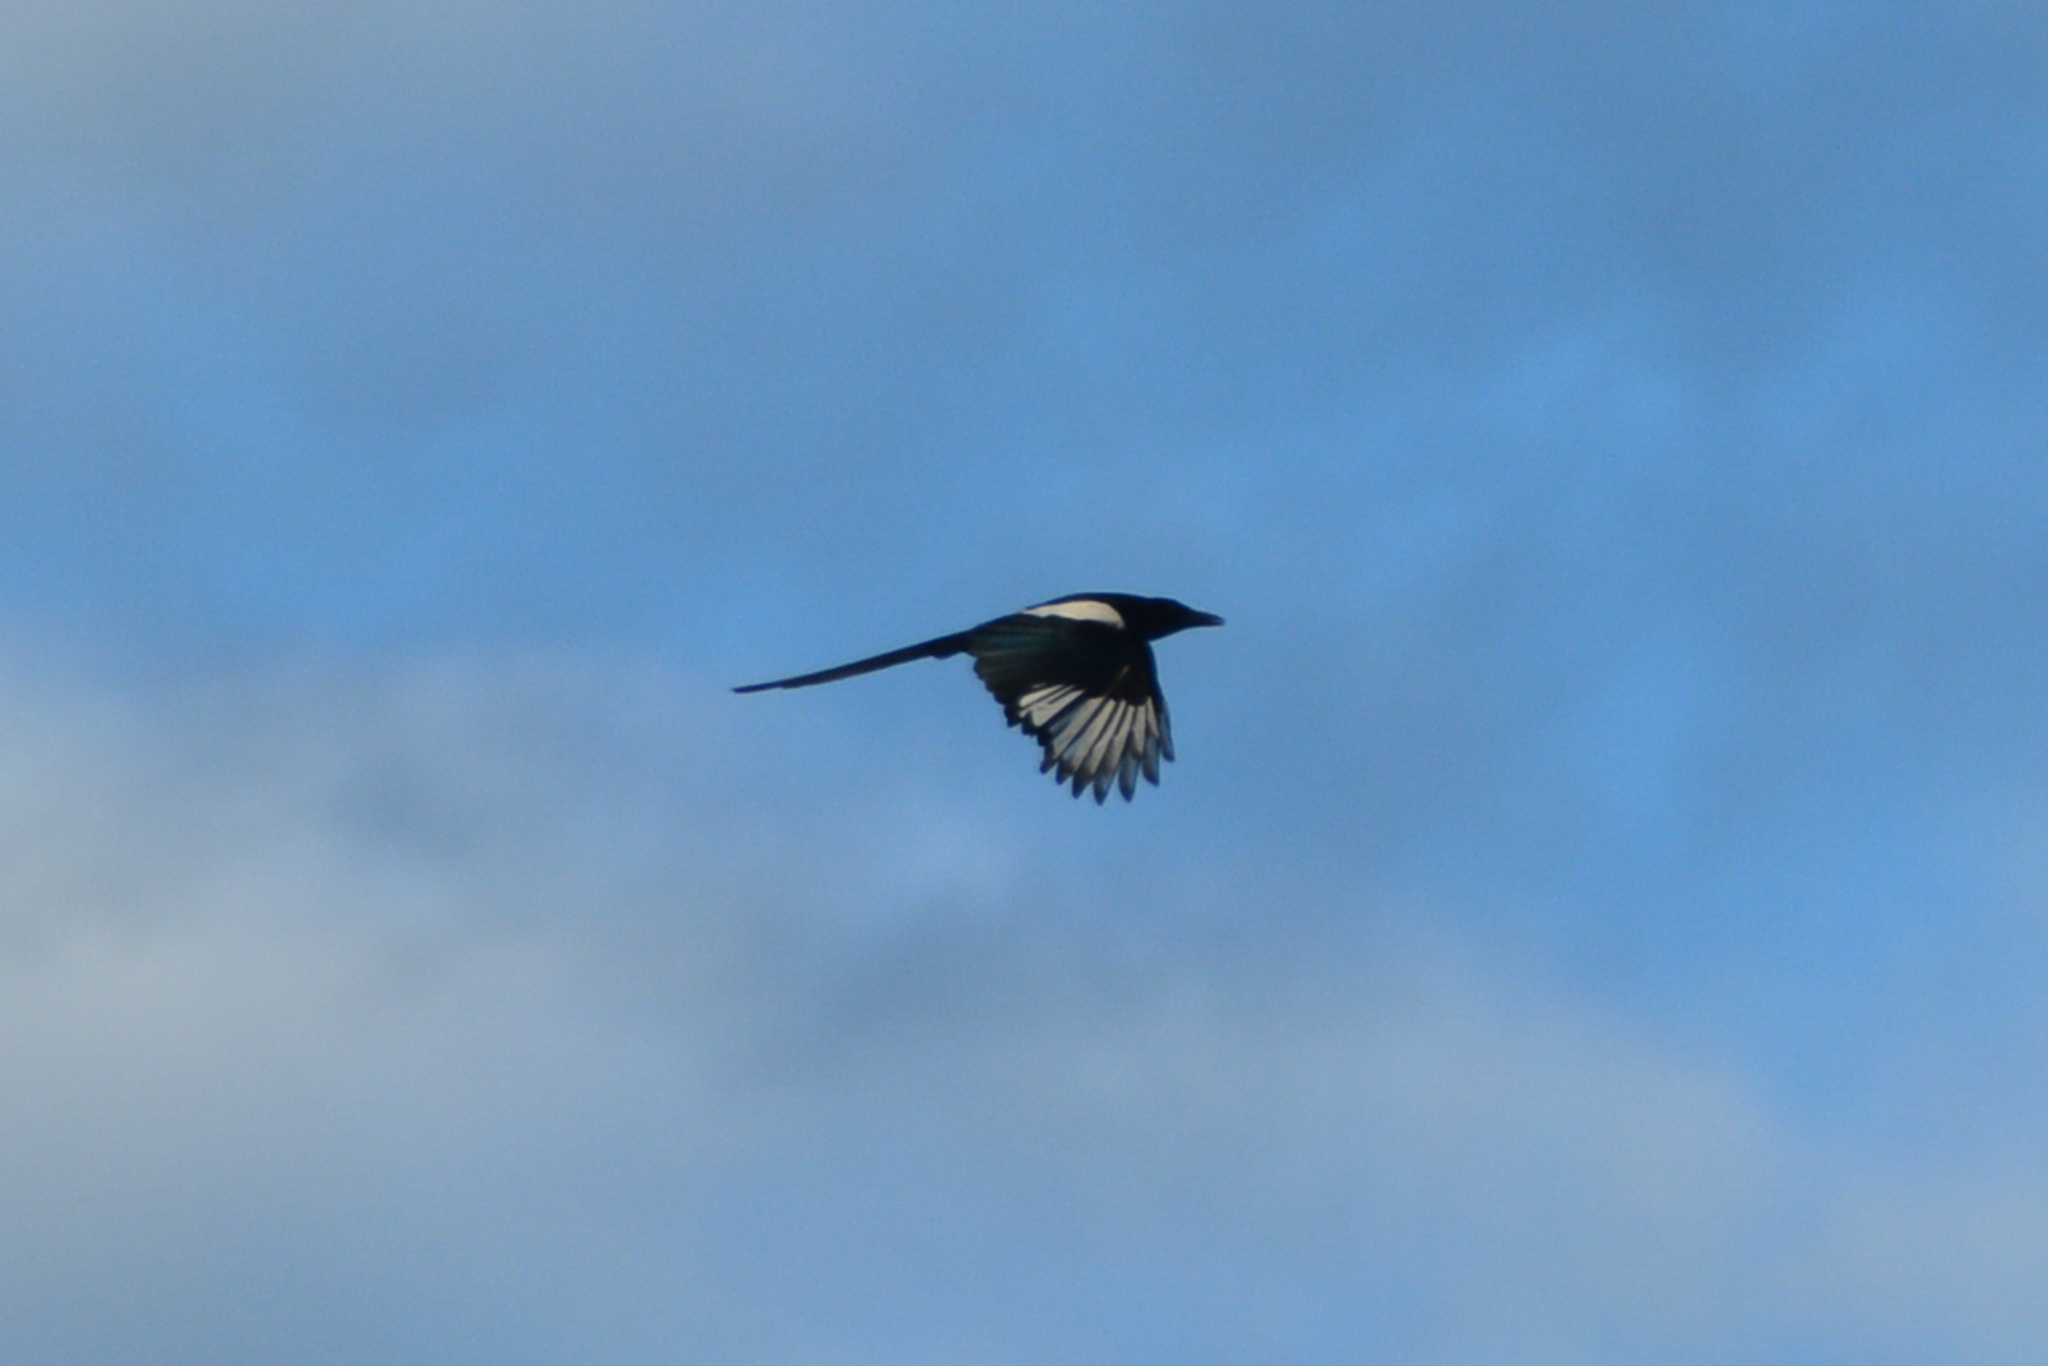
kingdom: Animalia
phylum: Chordata
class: Aves
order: Passeriformes
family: Corvidae
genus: Pica
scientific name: Pica hudsonia
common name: Black-billed magpie
